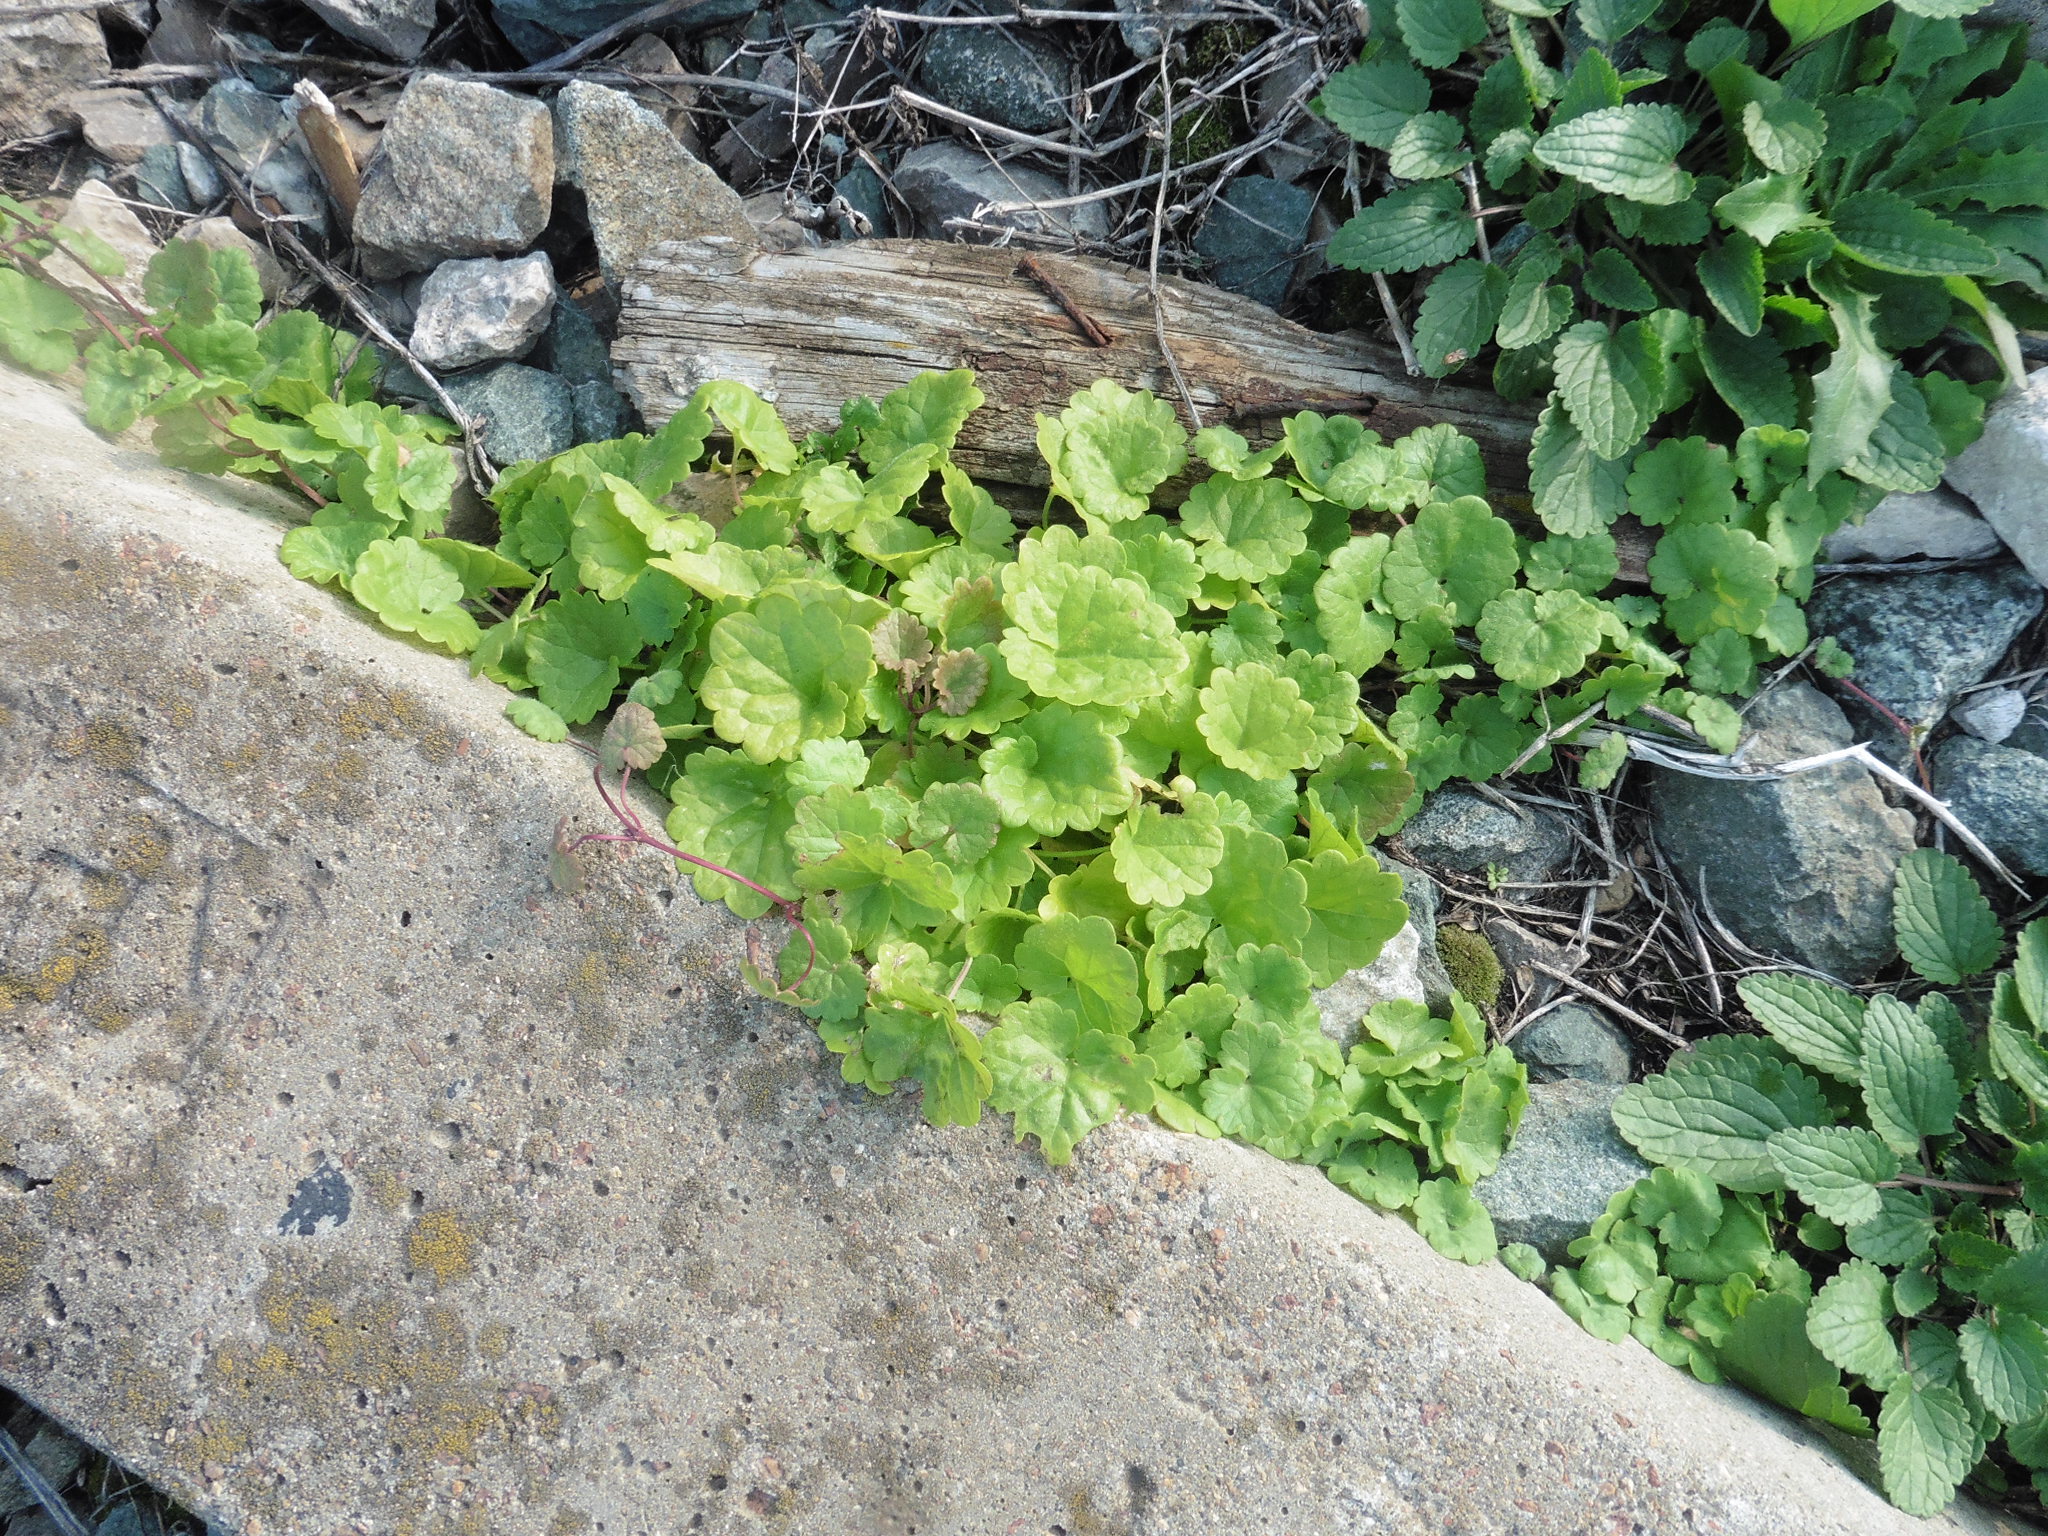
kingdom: Plantae
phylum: Tracheophyta
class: Magnoliopsida
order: Lamiales
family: Lamiaceae
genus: Glechoma
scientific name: Glechoma hederacea
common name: Ground ivy
